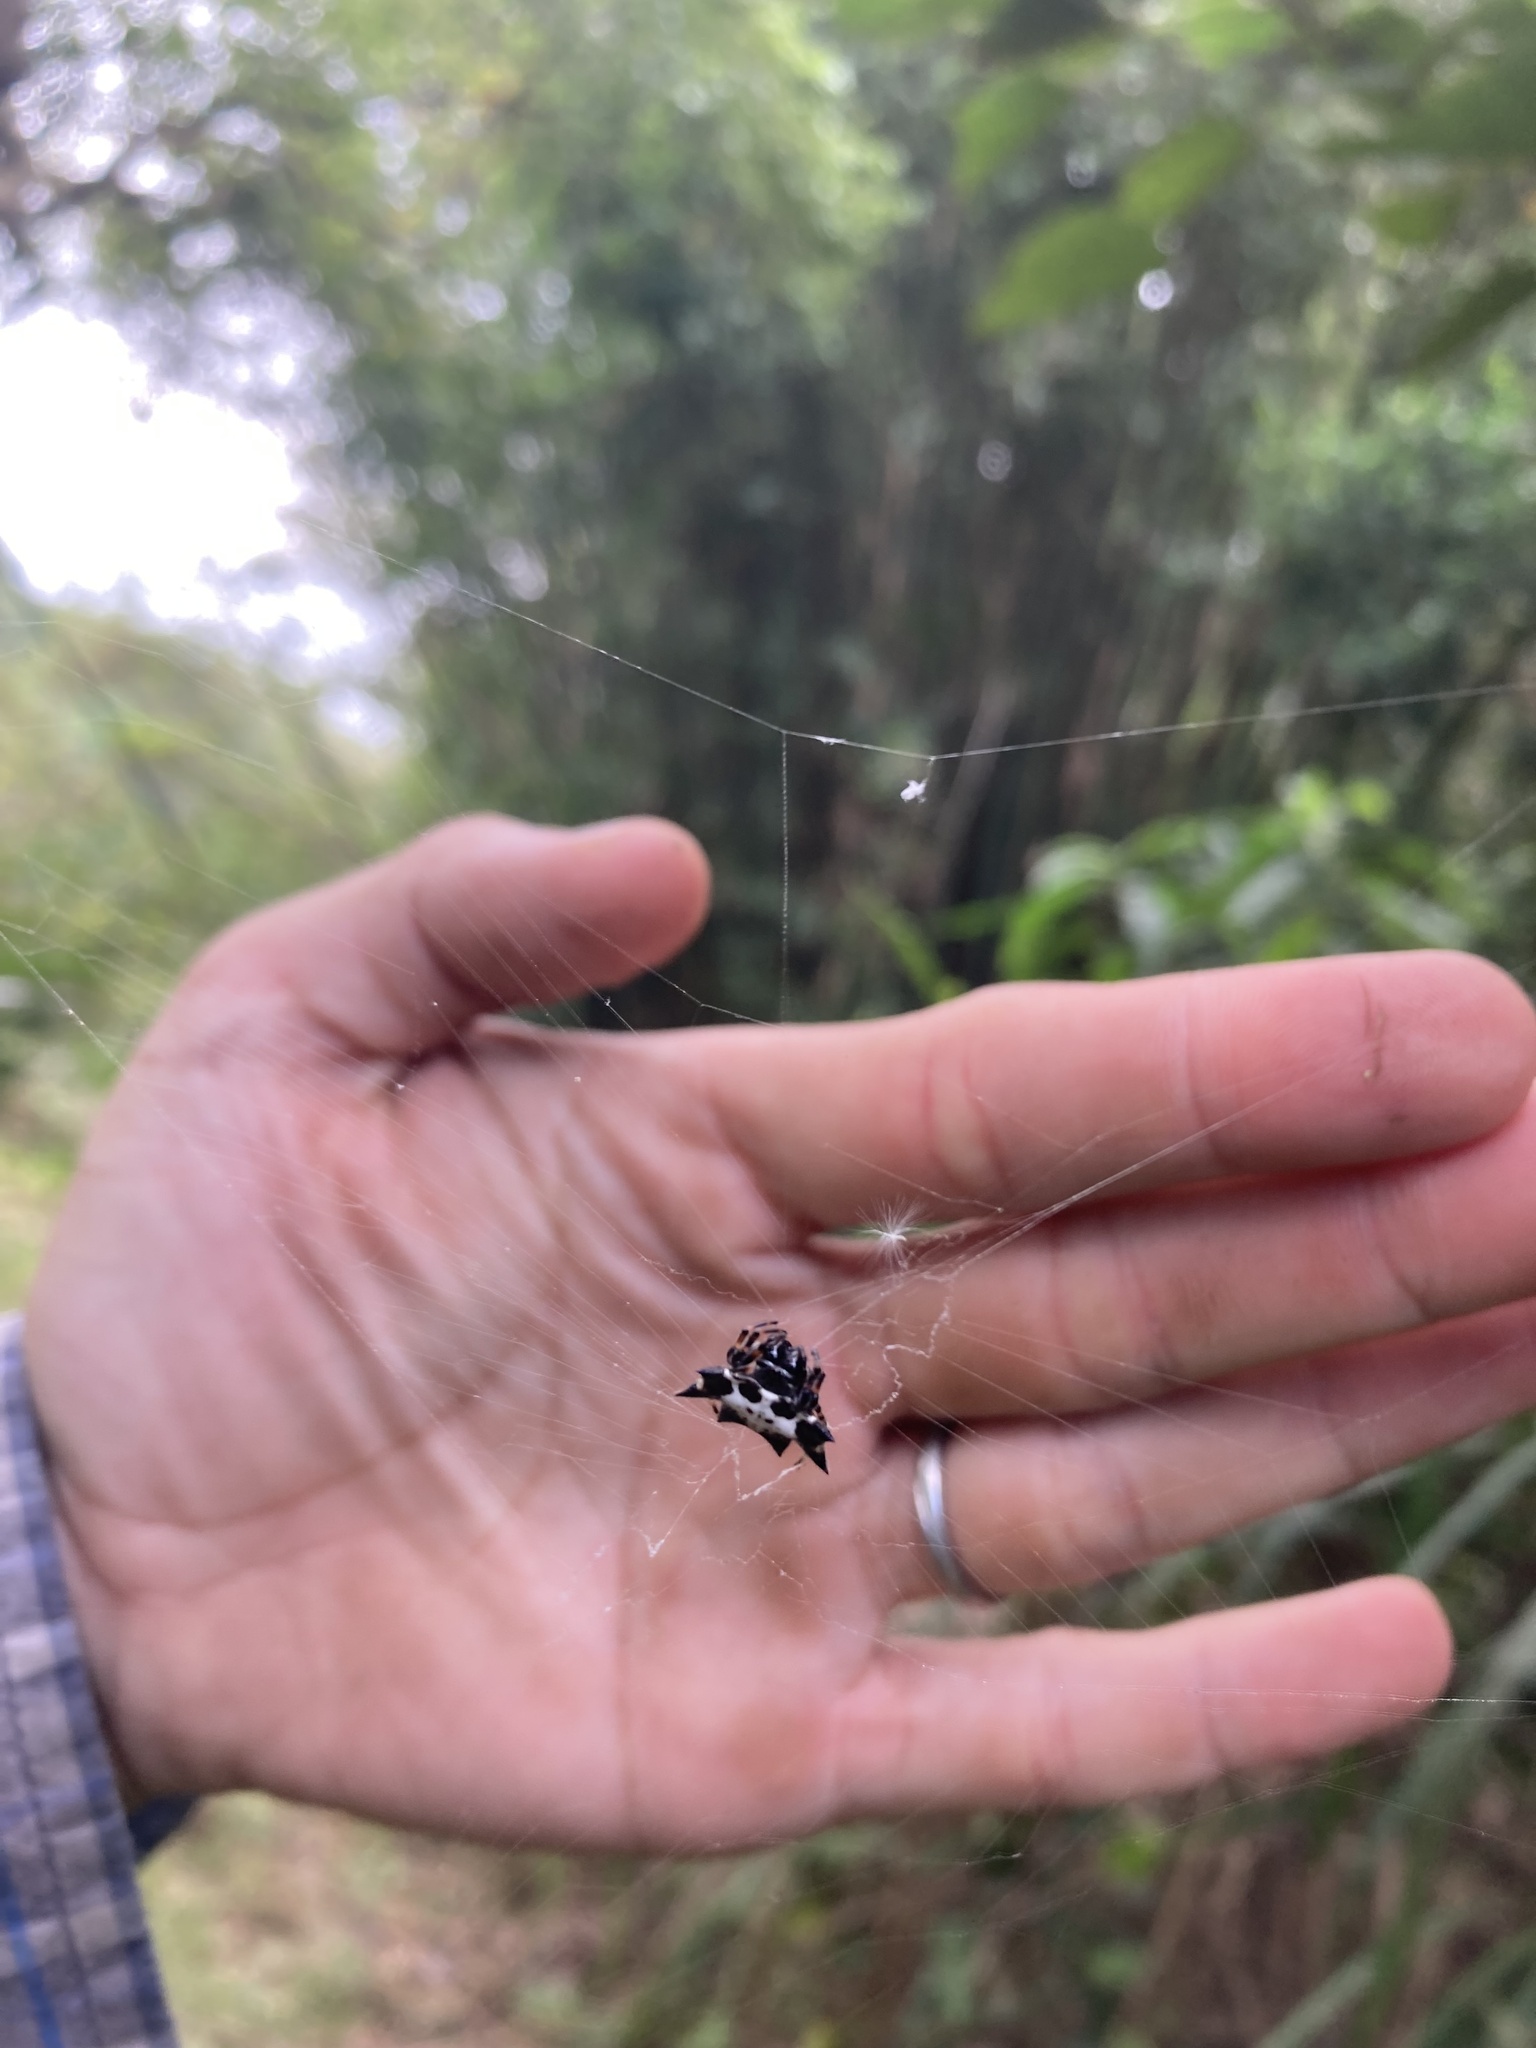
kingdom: Animalia
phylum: Arthropoda
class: Arachnida
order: Araneae
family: Araneidae
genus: Gasteracantha
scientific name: Gasteracantha kuhli
